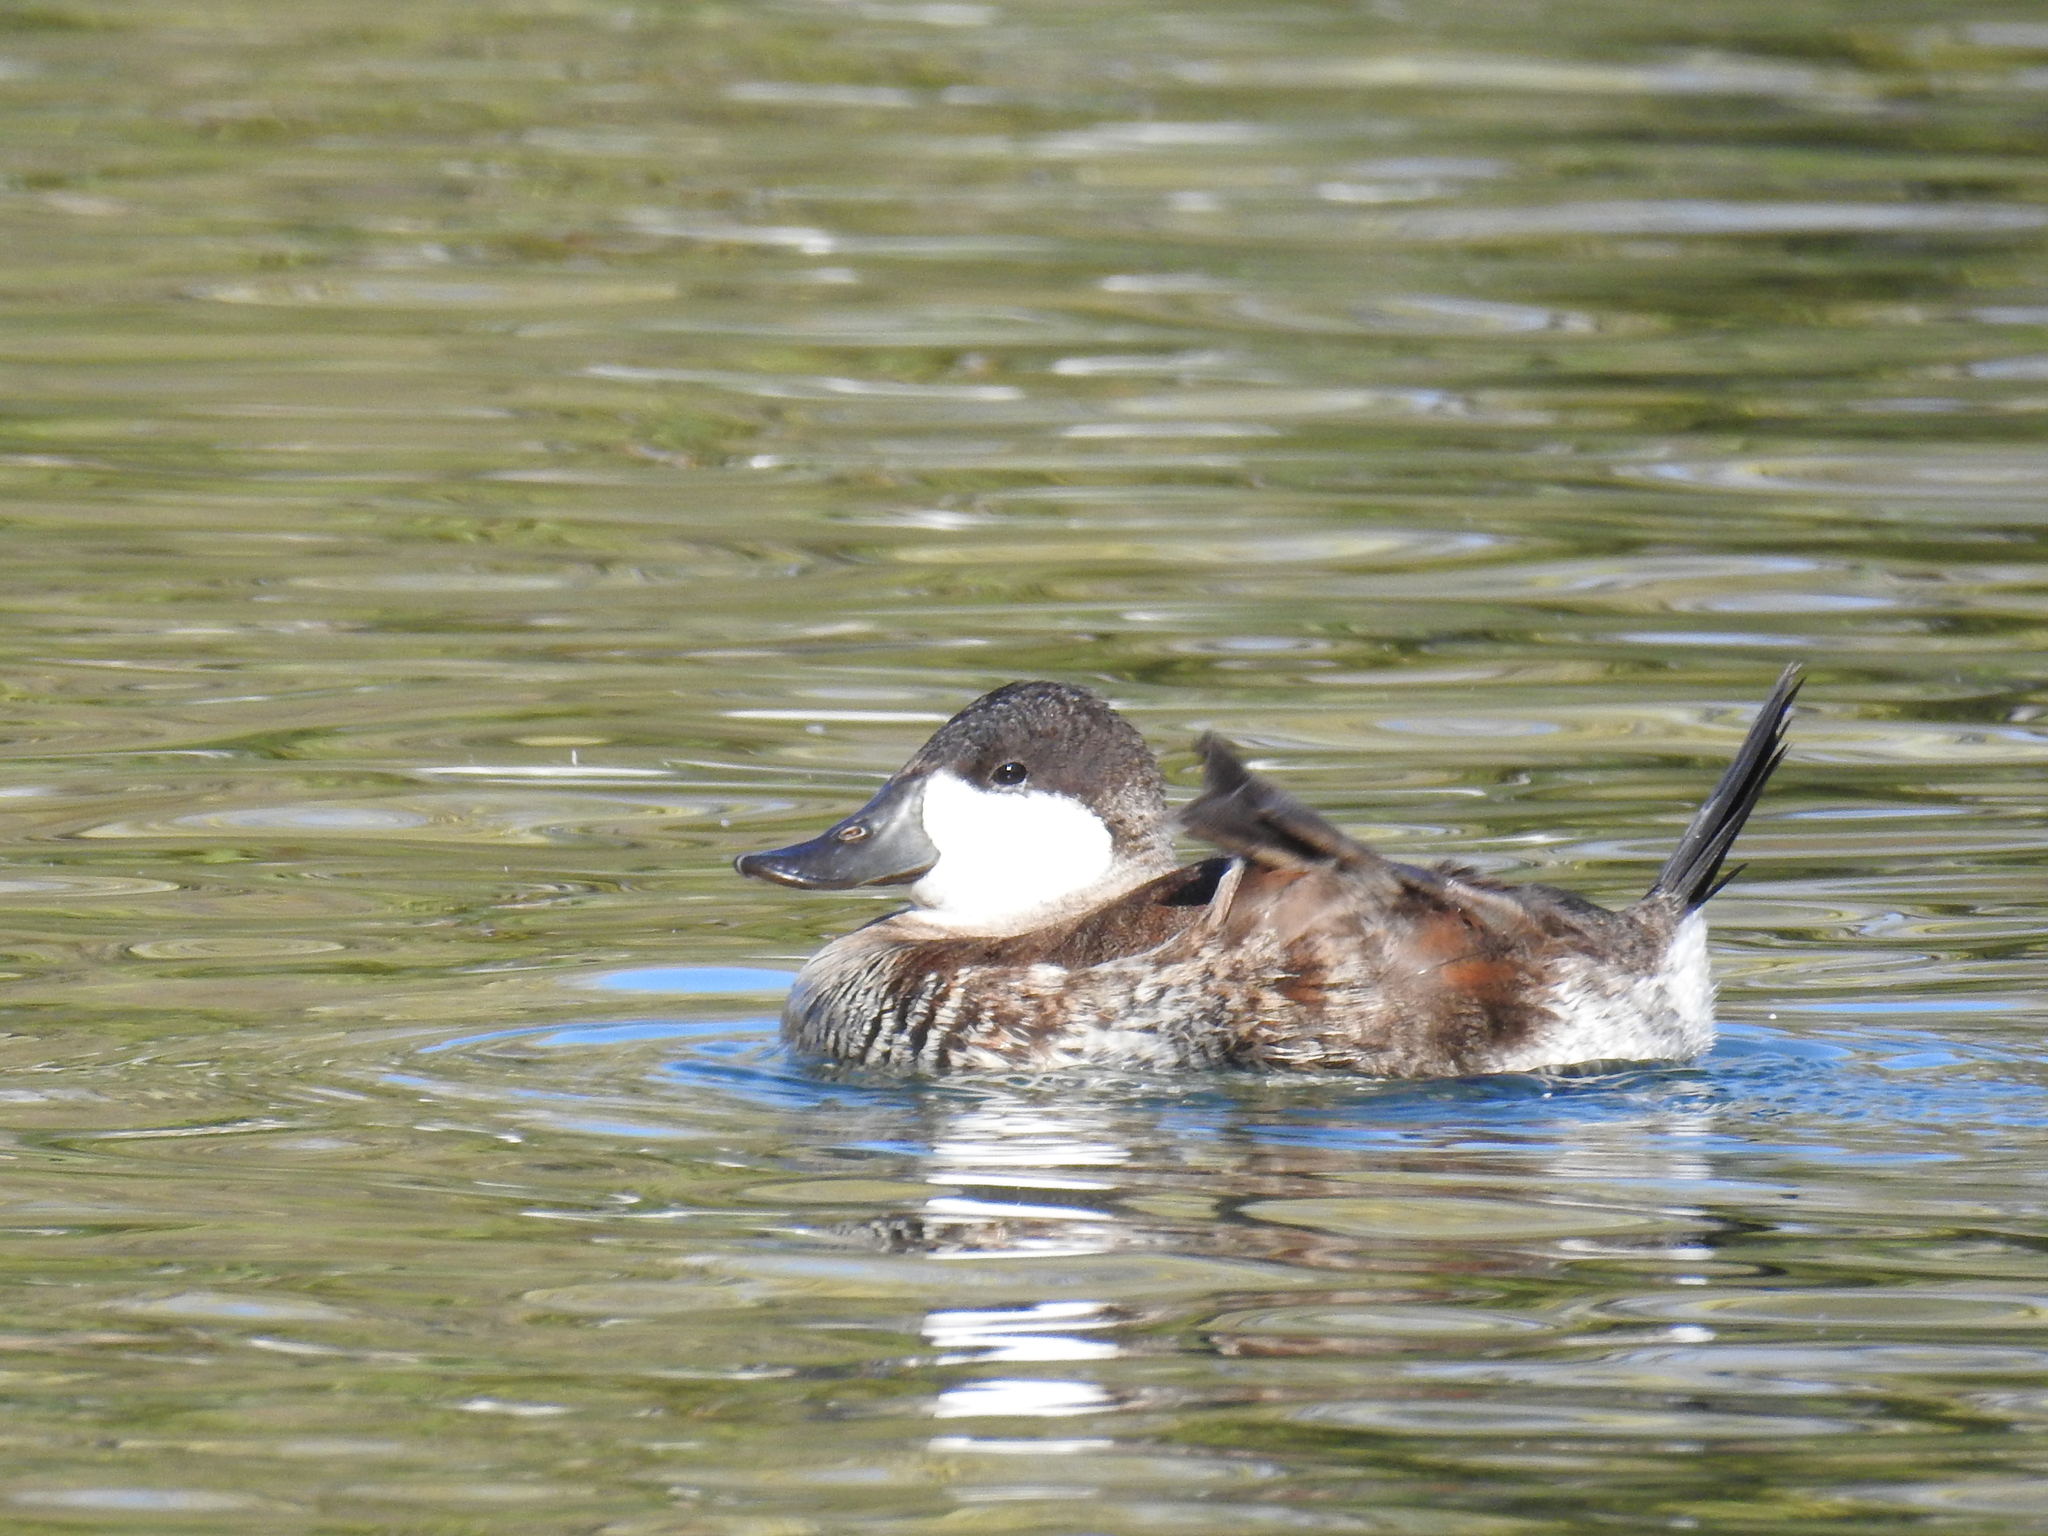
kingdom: Animalia
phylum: Chordata
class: Aves
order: Anseriformes
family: Anatidae
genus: Oxyura
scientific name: Oxyura jamaicensis
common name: Ruddy duck
